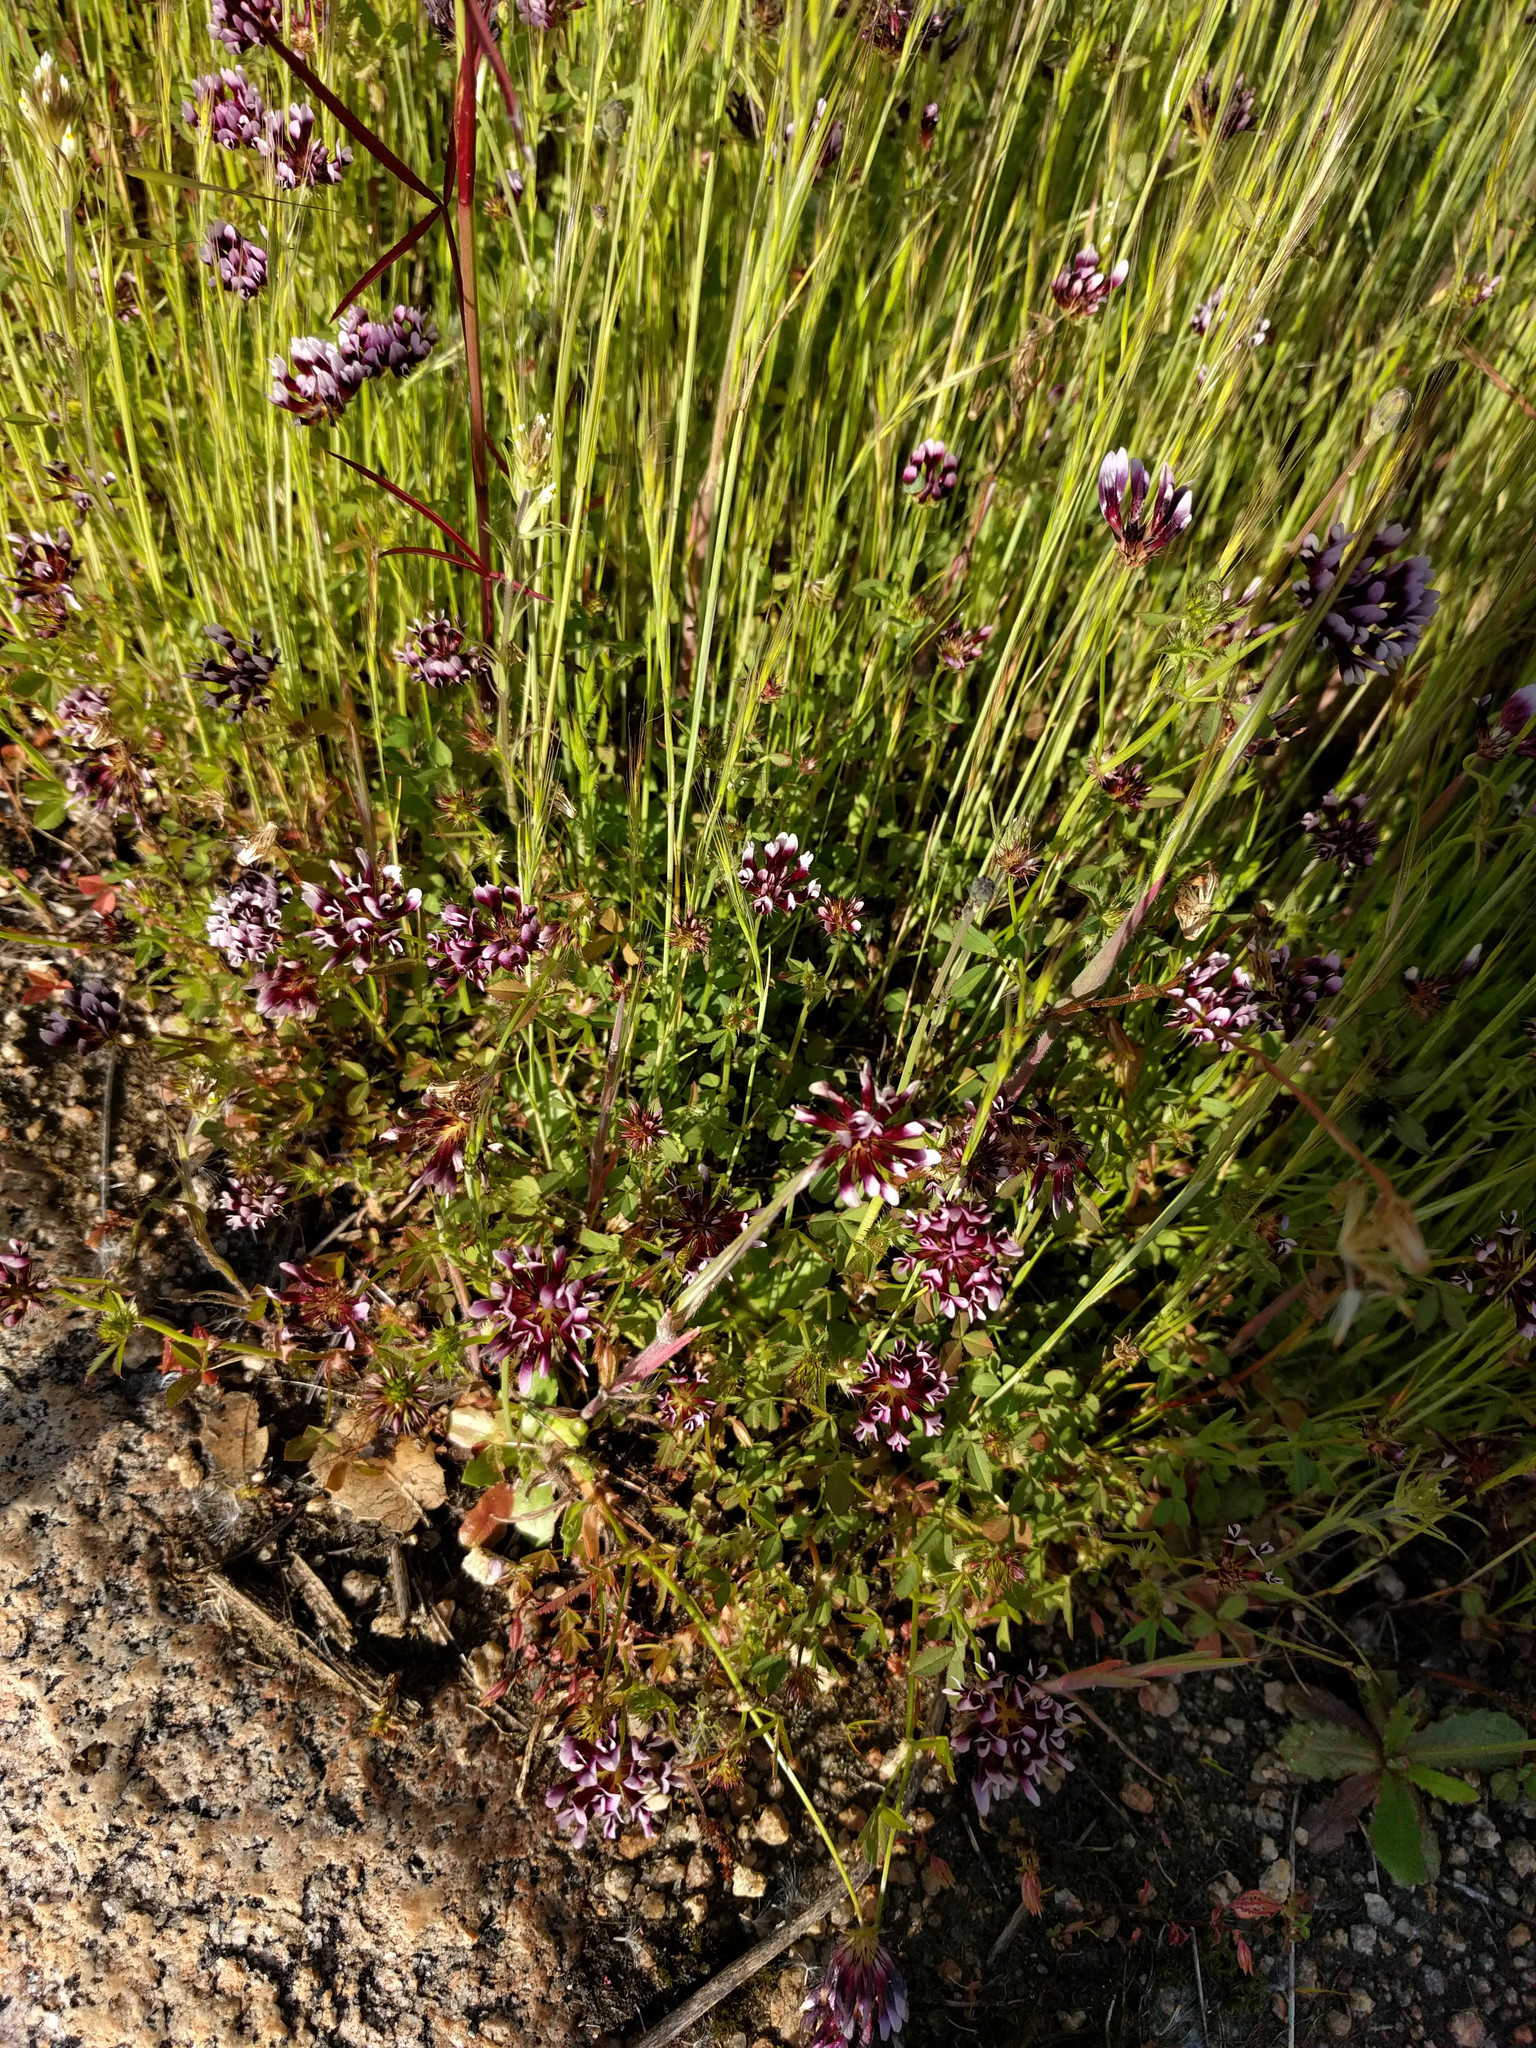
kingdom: Plantae
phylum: Tracheophyta
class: Magnoliopsida
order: Fabales
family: Fabaceae
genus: Trifolium
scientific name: Trifolium variegatum
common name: Whitetip clover
